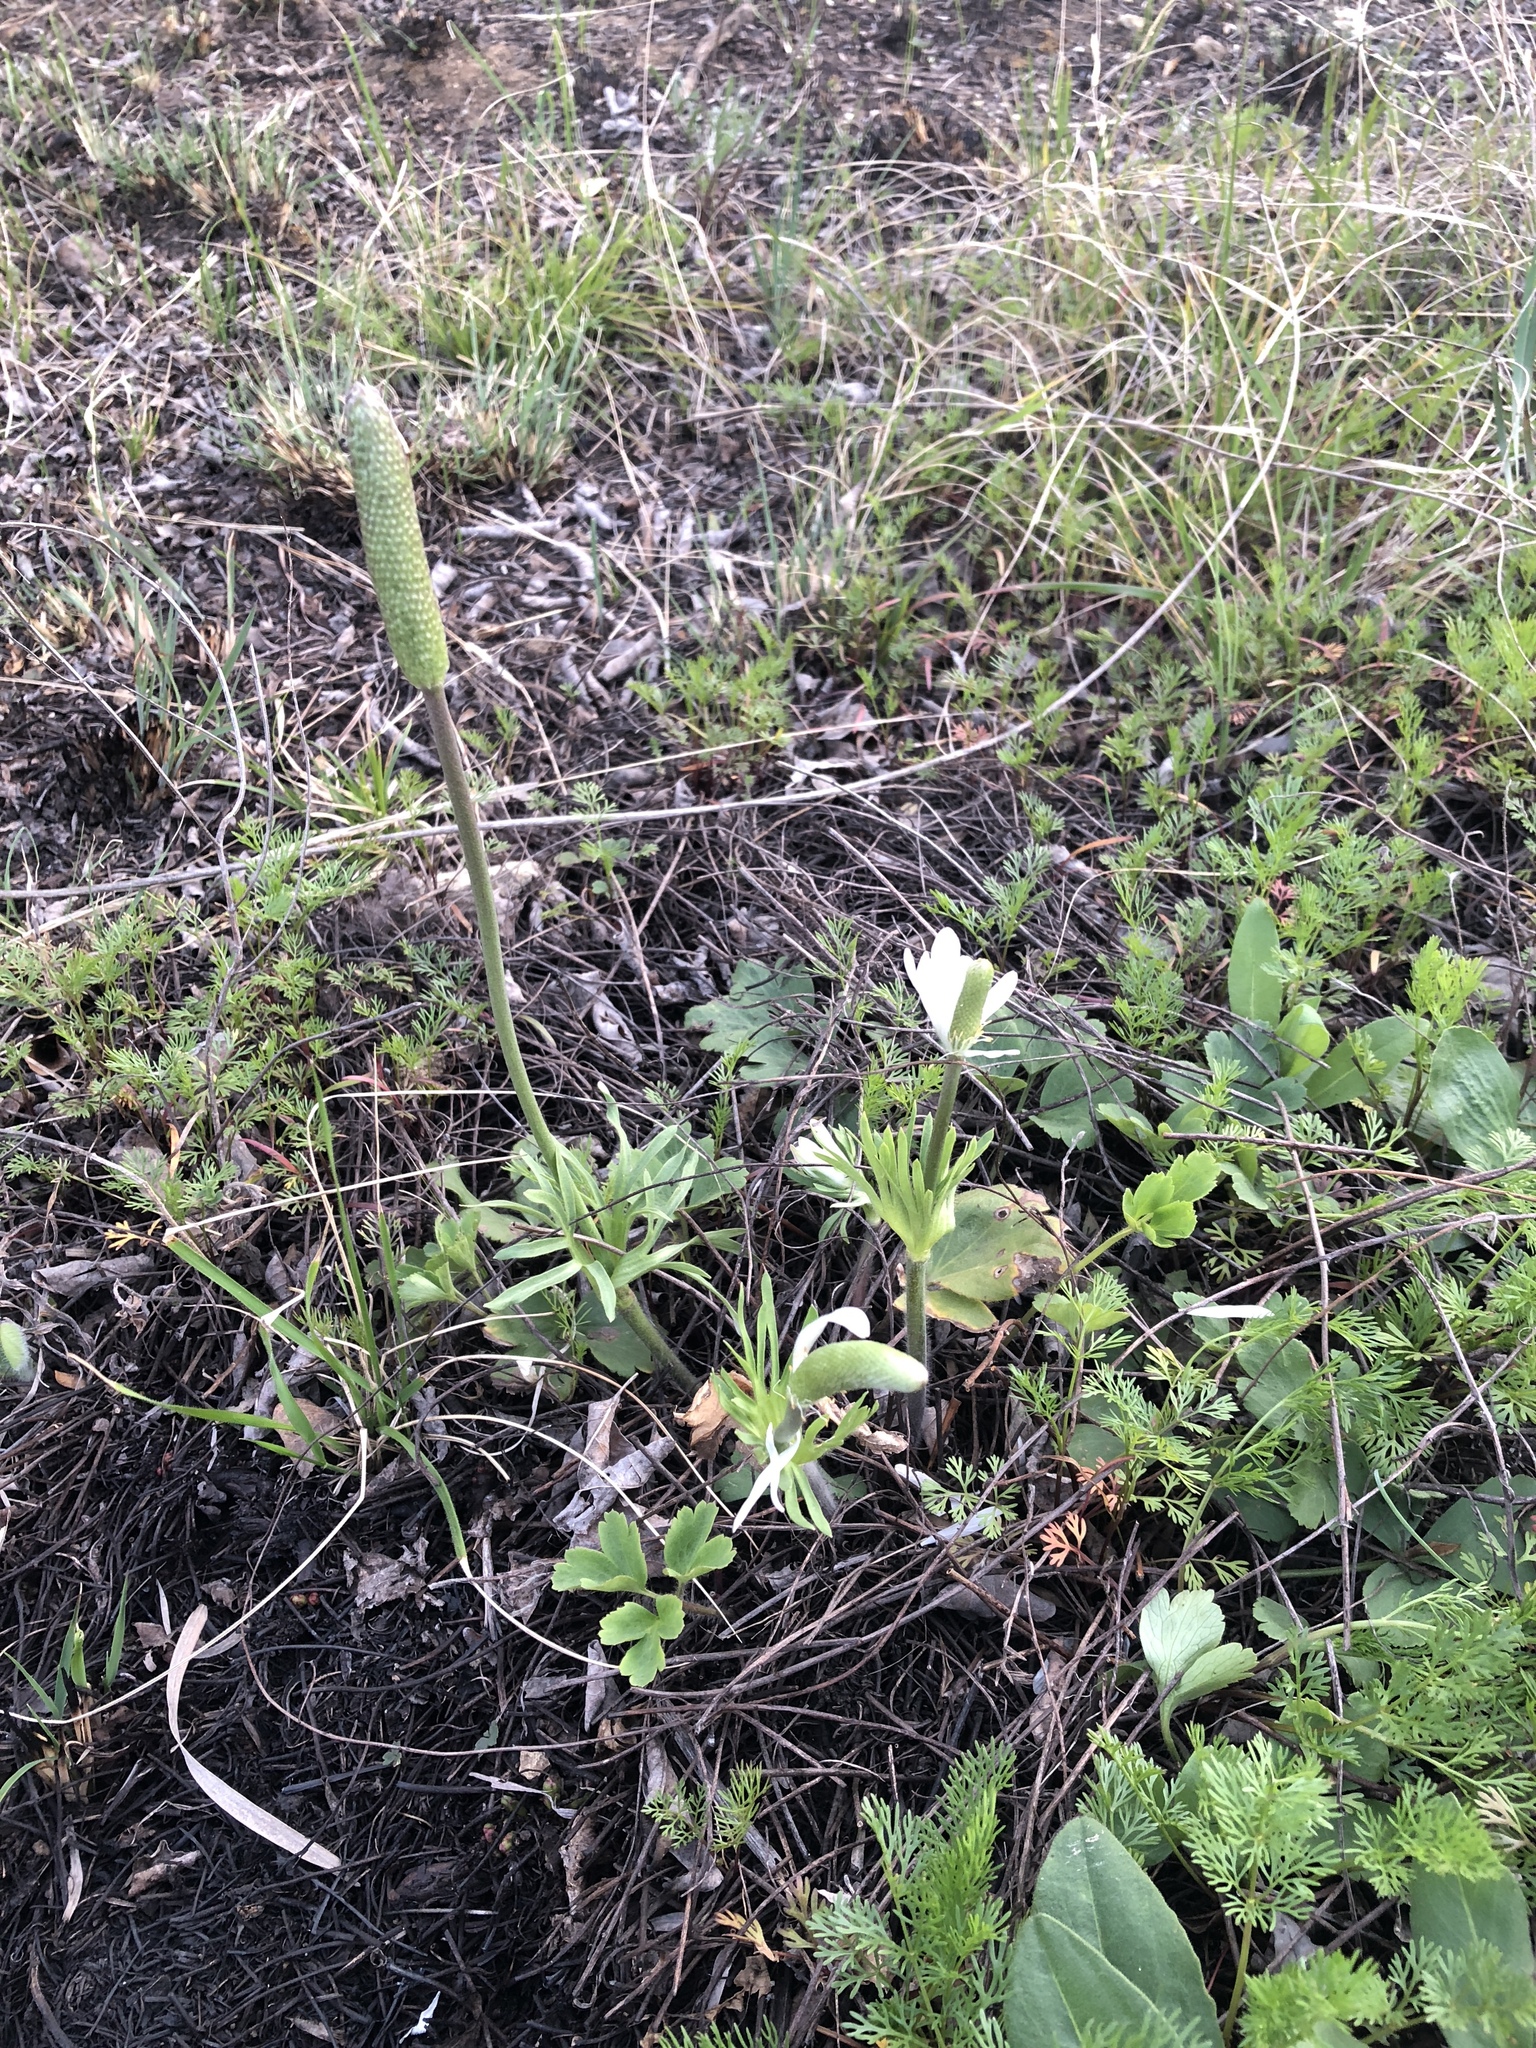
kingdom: Plantae
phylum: Tracheophyta
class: Magnoliopsida
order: Ranunculales
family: Ranunculaceae
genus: Anemone
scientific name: Anemone berlandieri
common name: Ten-petal anemone
